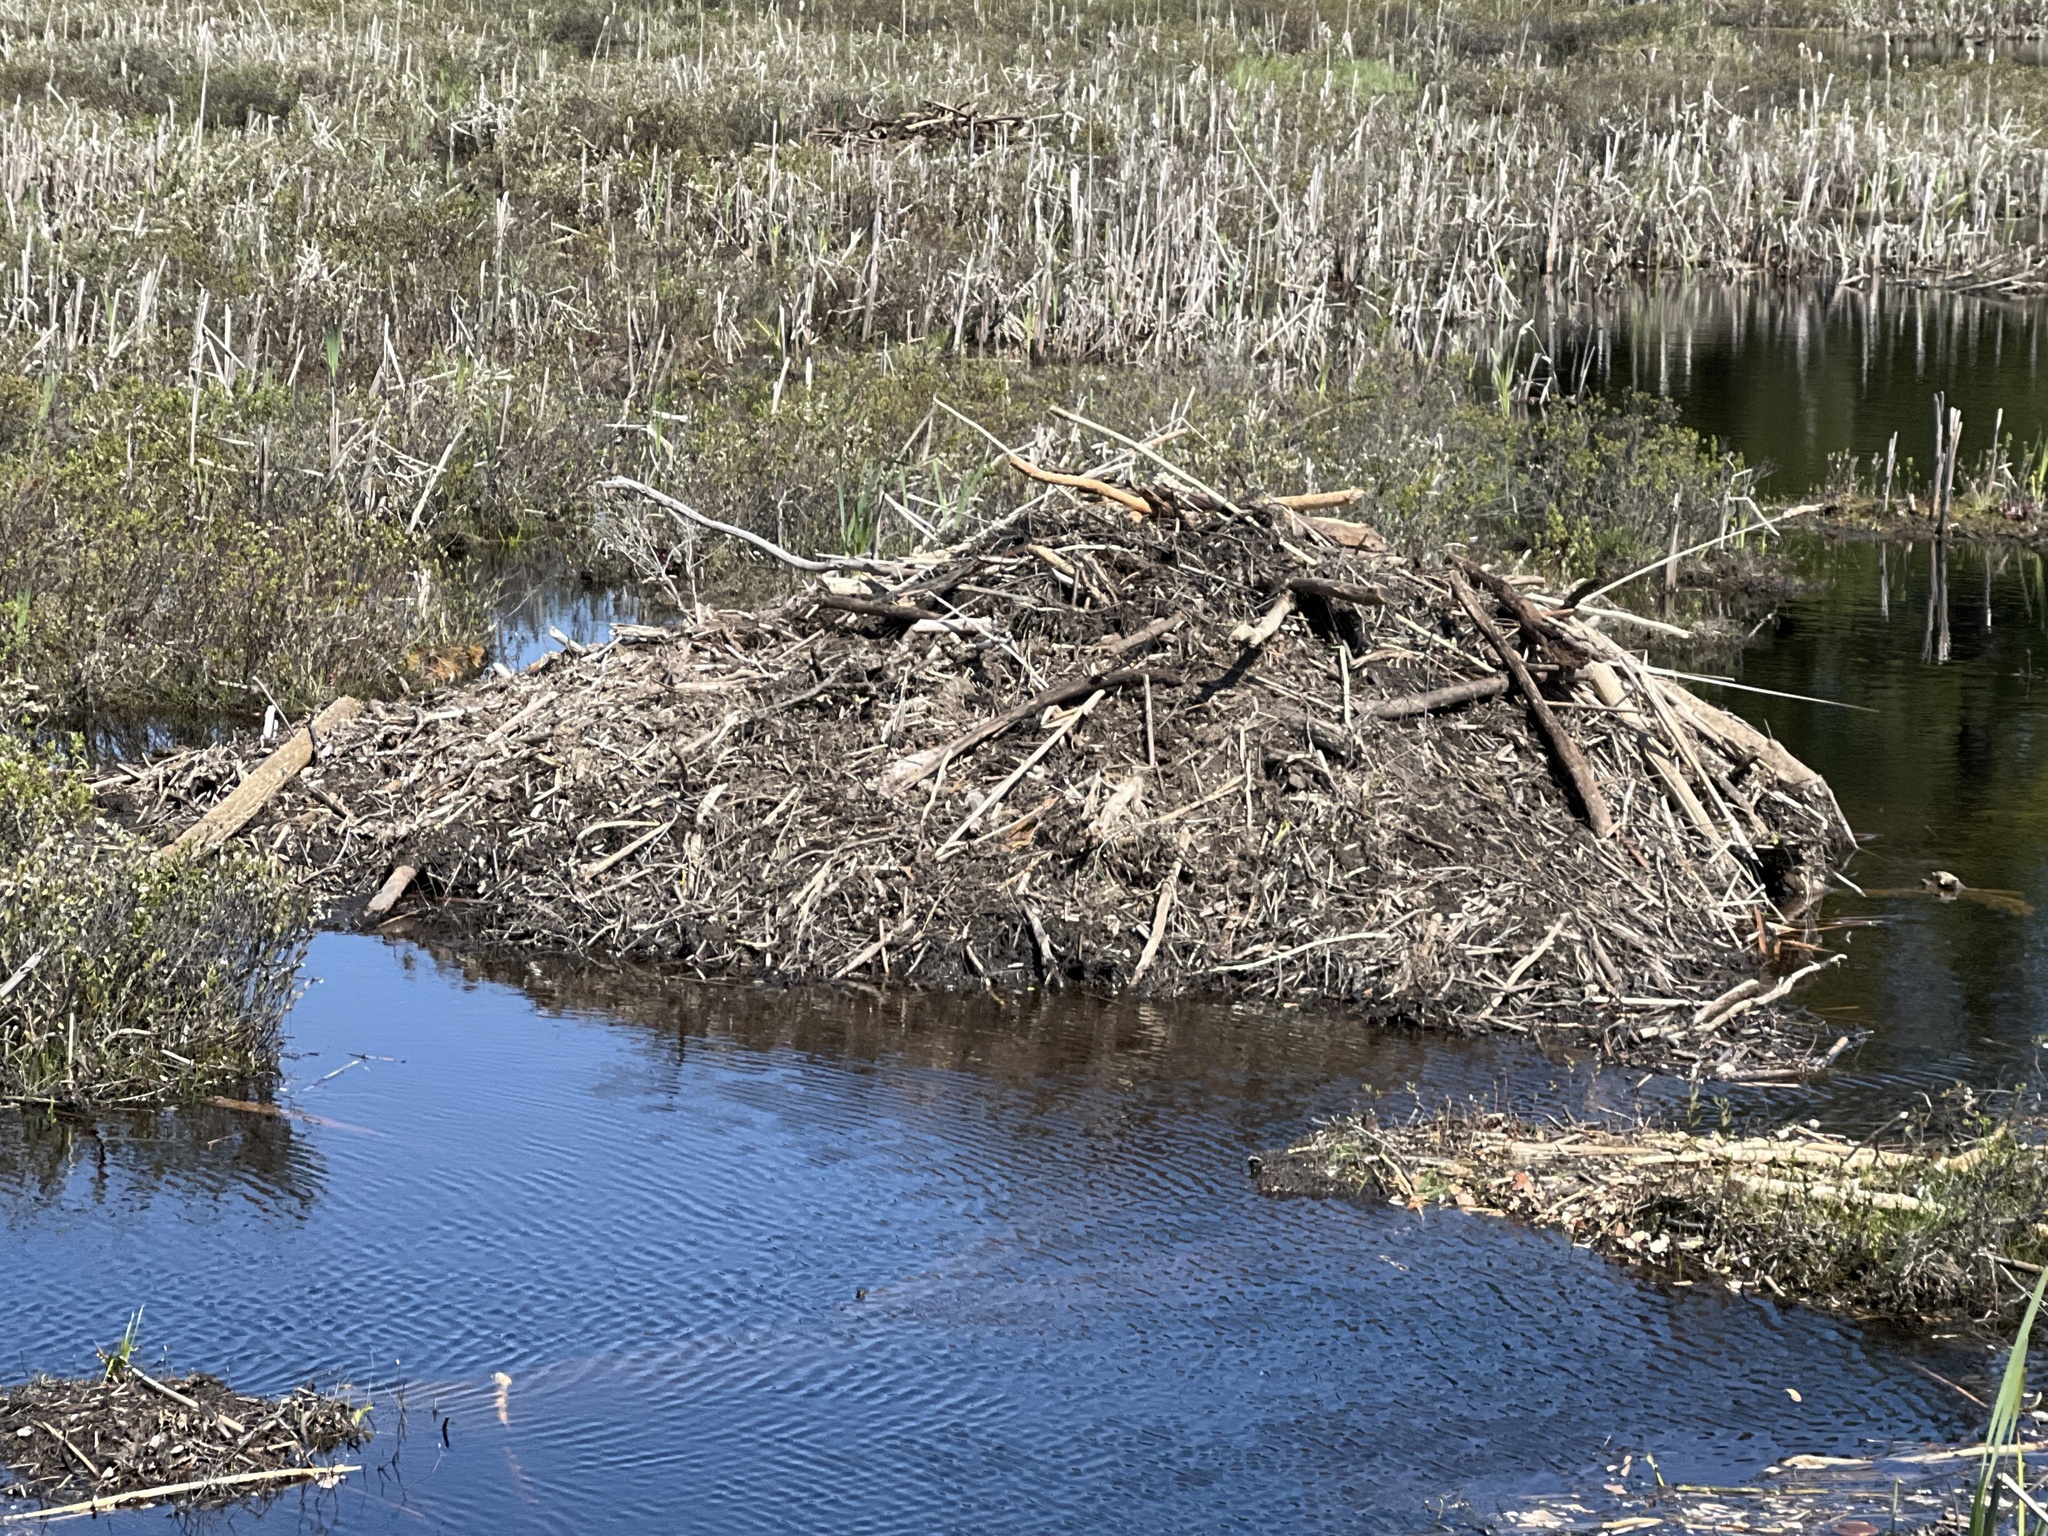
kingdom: Animalia
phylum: Chordata
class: Mammalia
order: Rodentia
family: Castoridae
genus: Castor
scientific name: Castor canadensis
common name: American beaver
